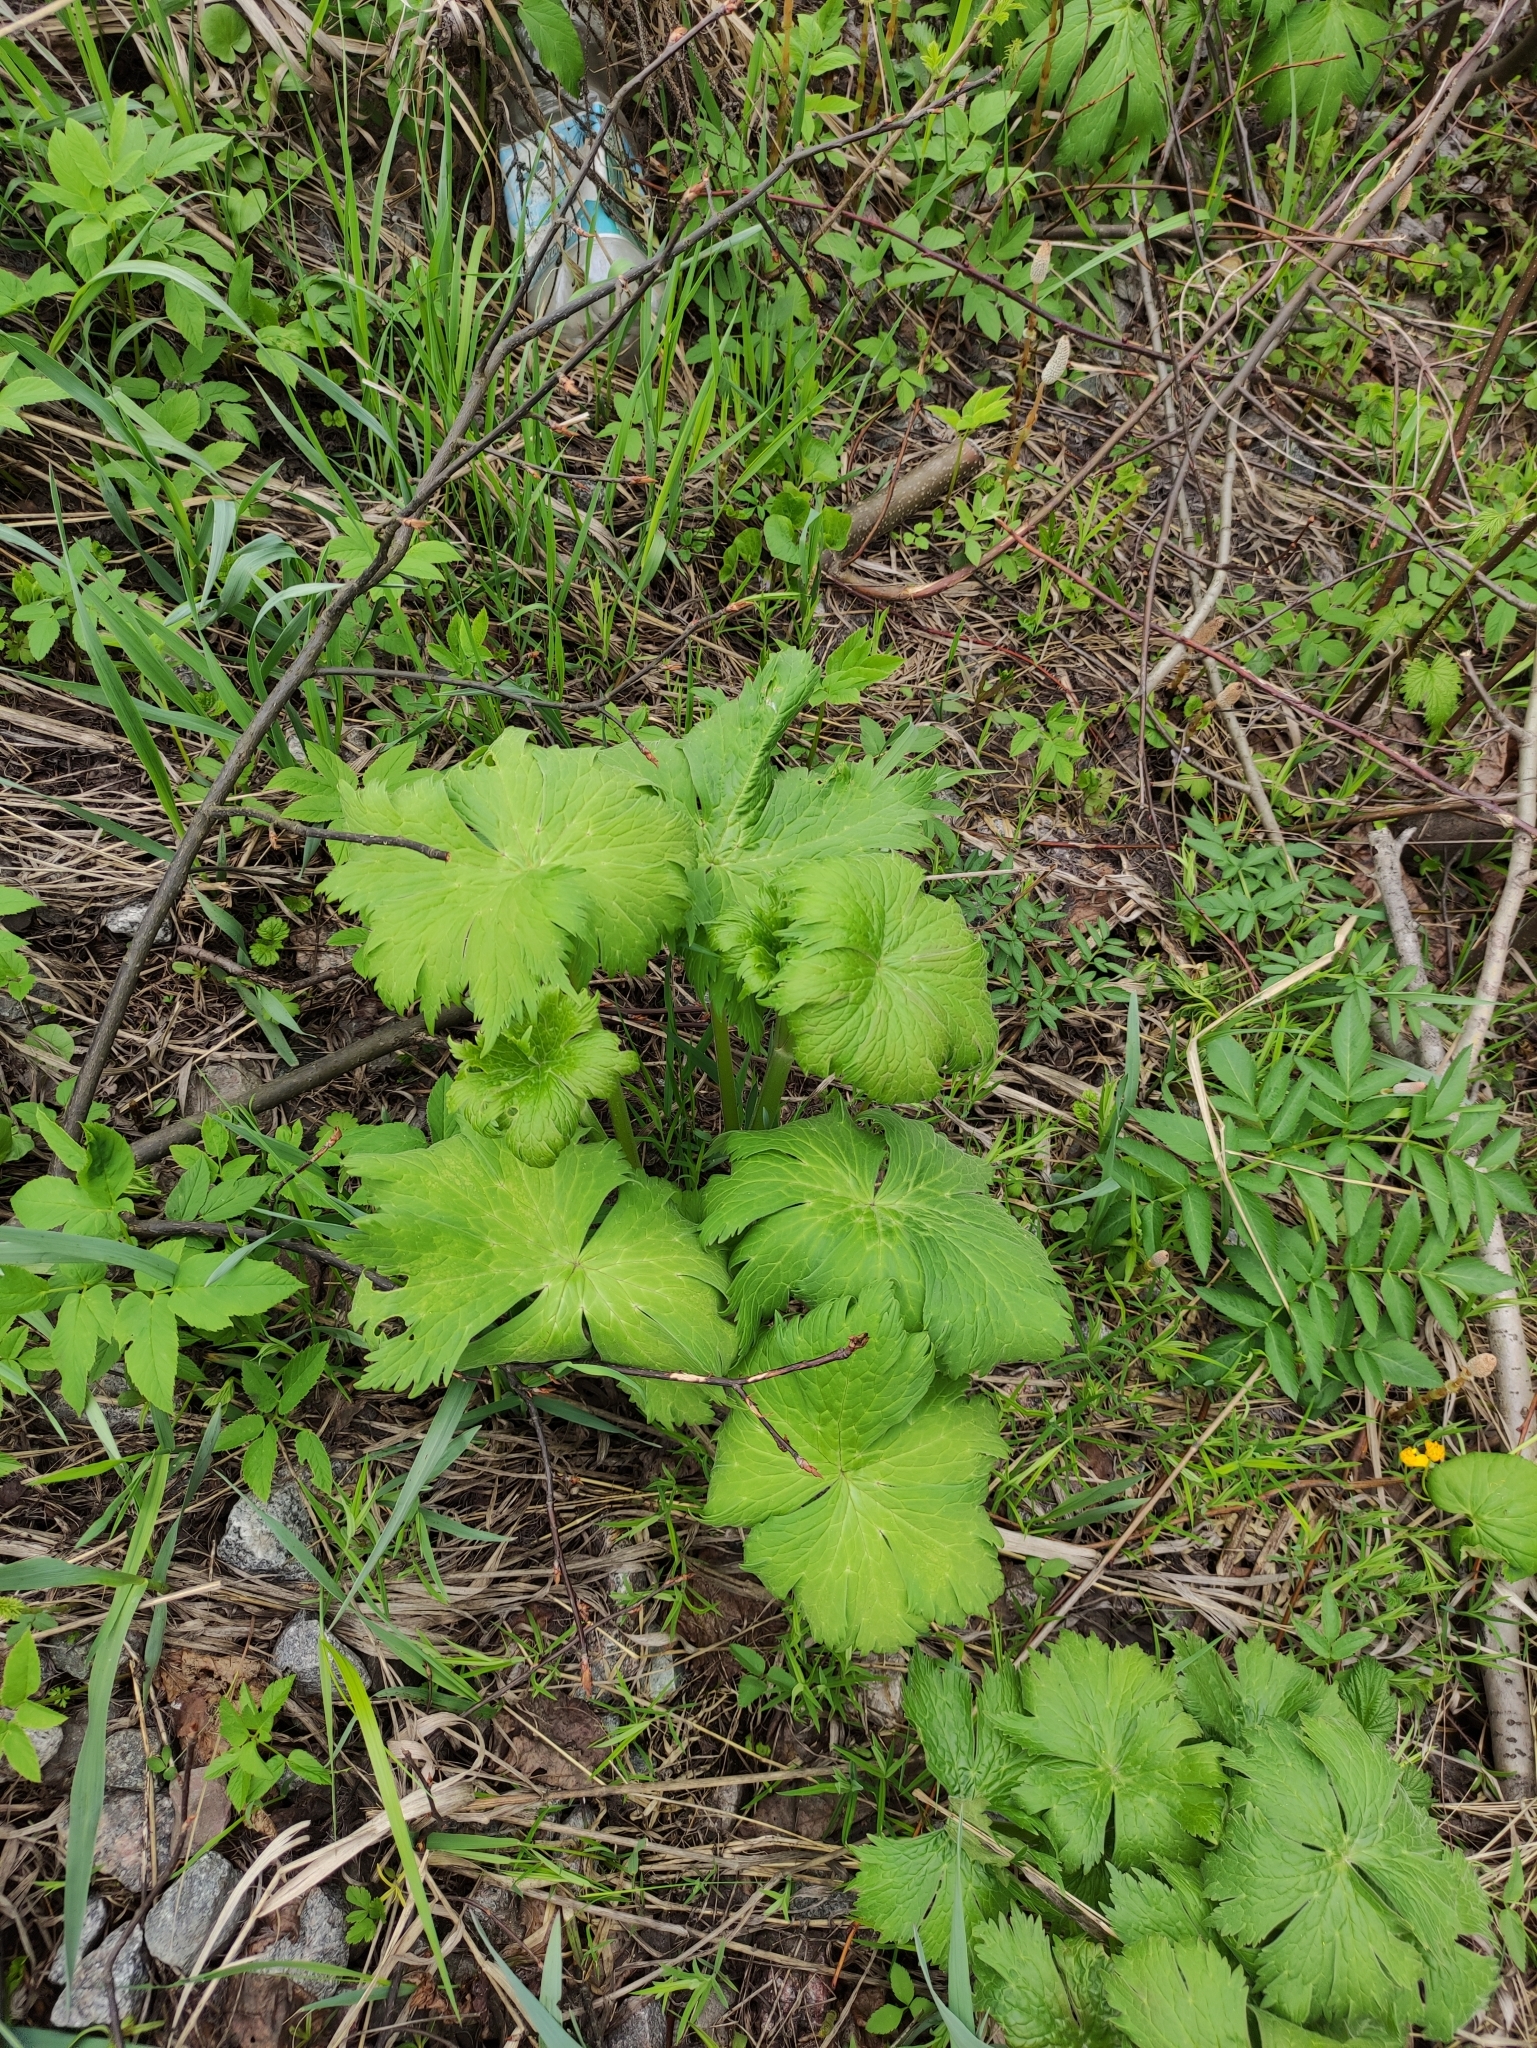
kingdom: Plantae
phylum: Tracheophyta
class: Magnoliopsida
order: Ranunculales
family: Ranunculaceae
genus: Aconitum
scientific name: Aconitum septentrionale
